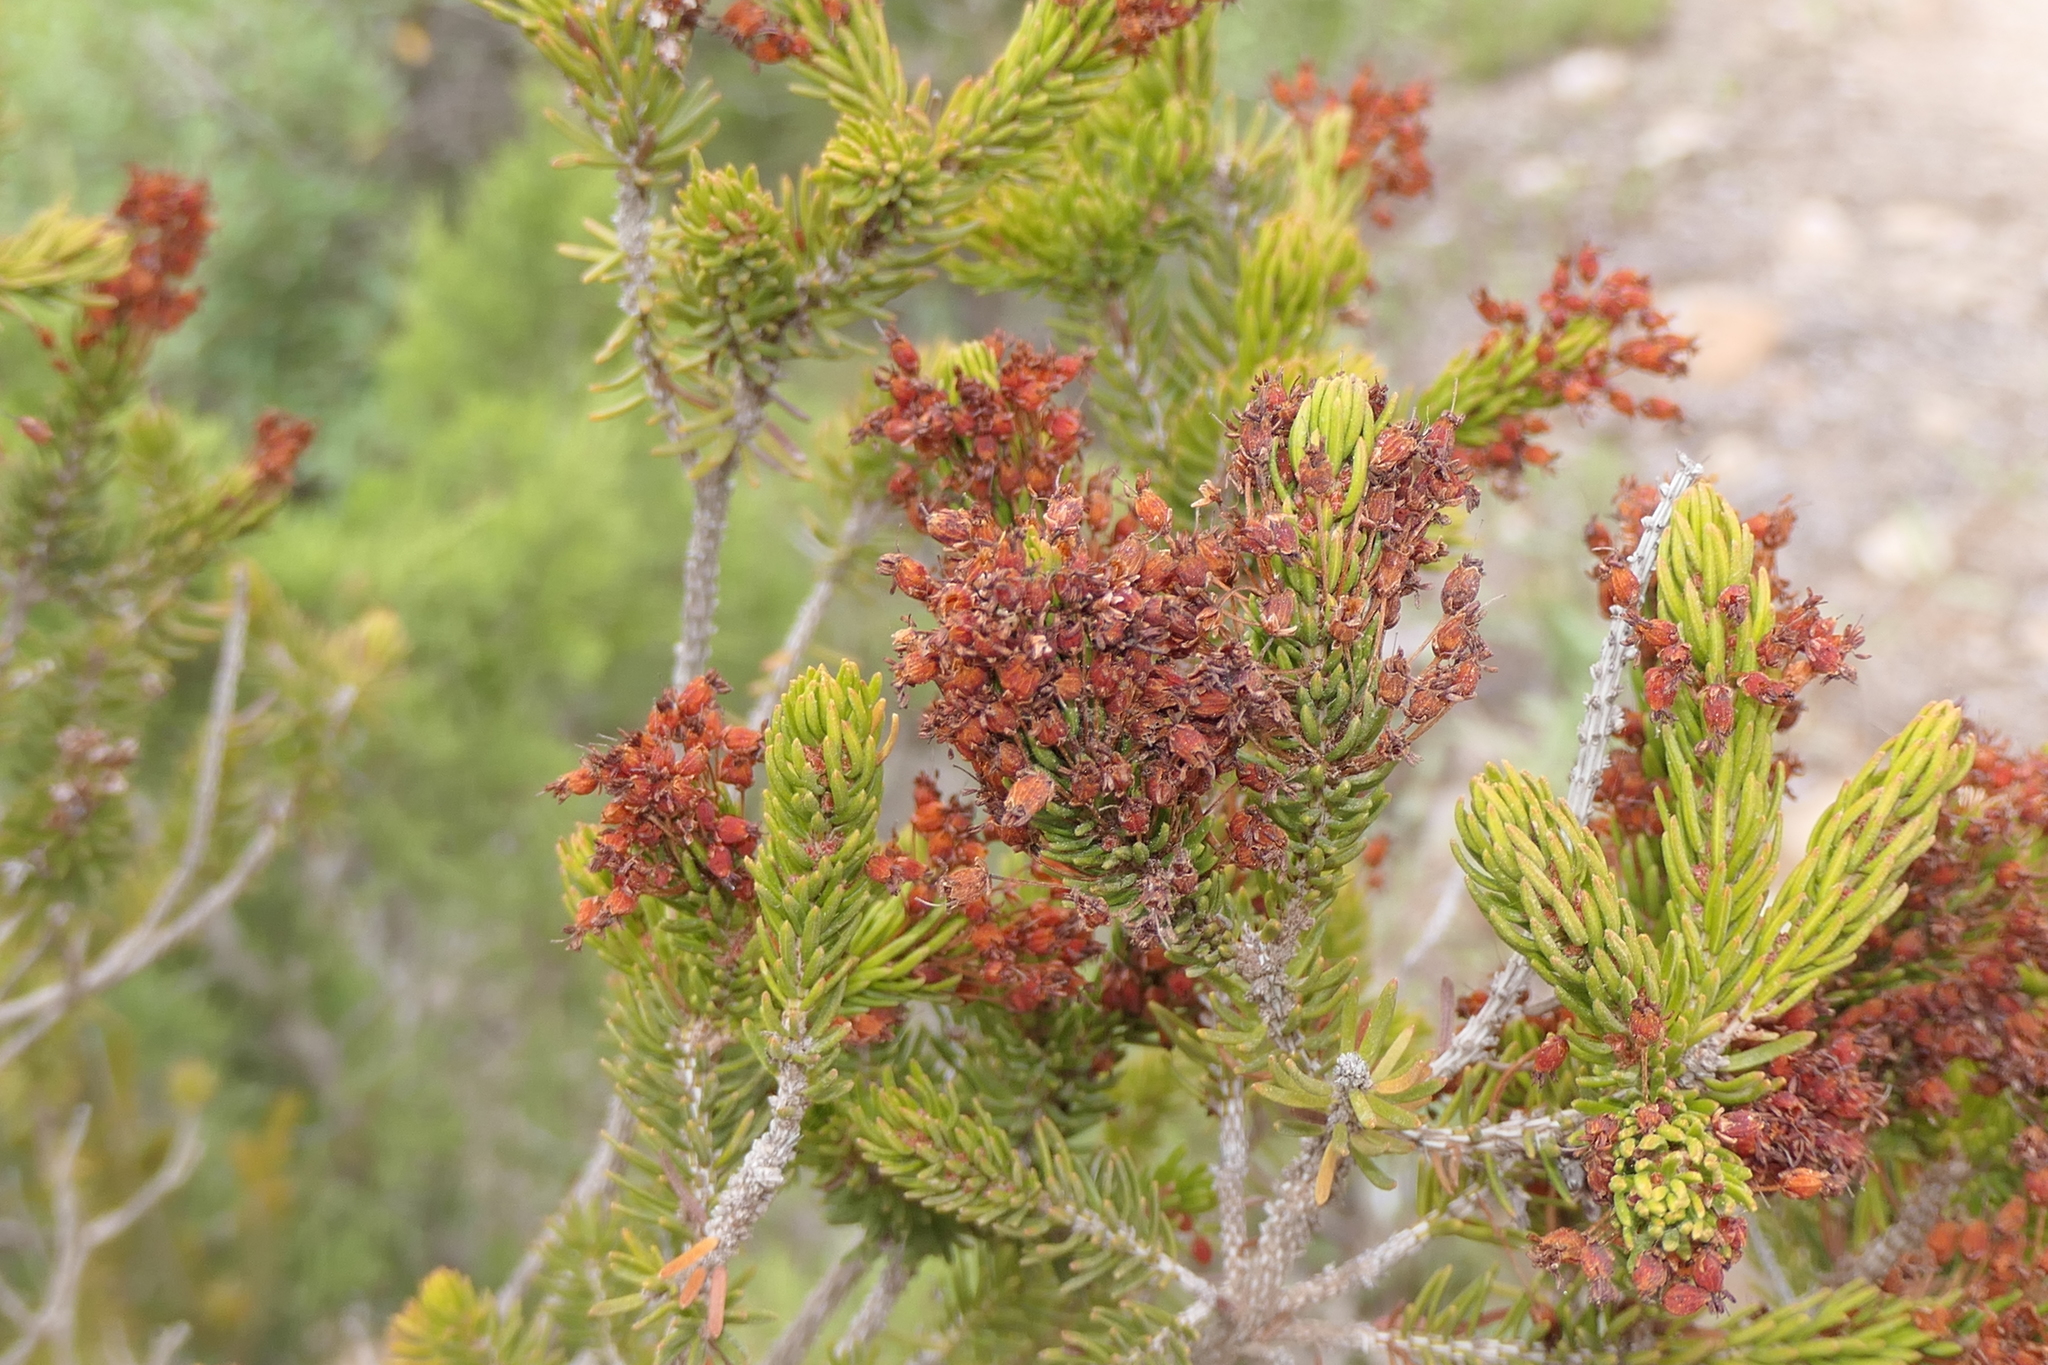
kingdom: Plantae
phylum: Tracheophyta
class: Magnoliopsida
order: Ericales
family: Ericaceae
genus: Erica
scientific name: Erica multiflora
